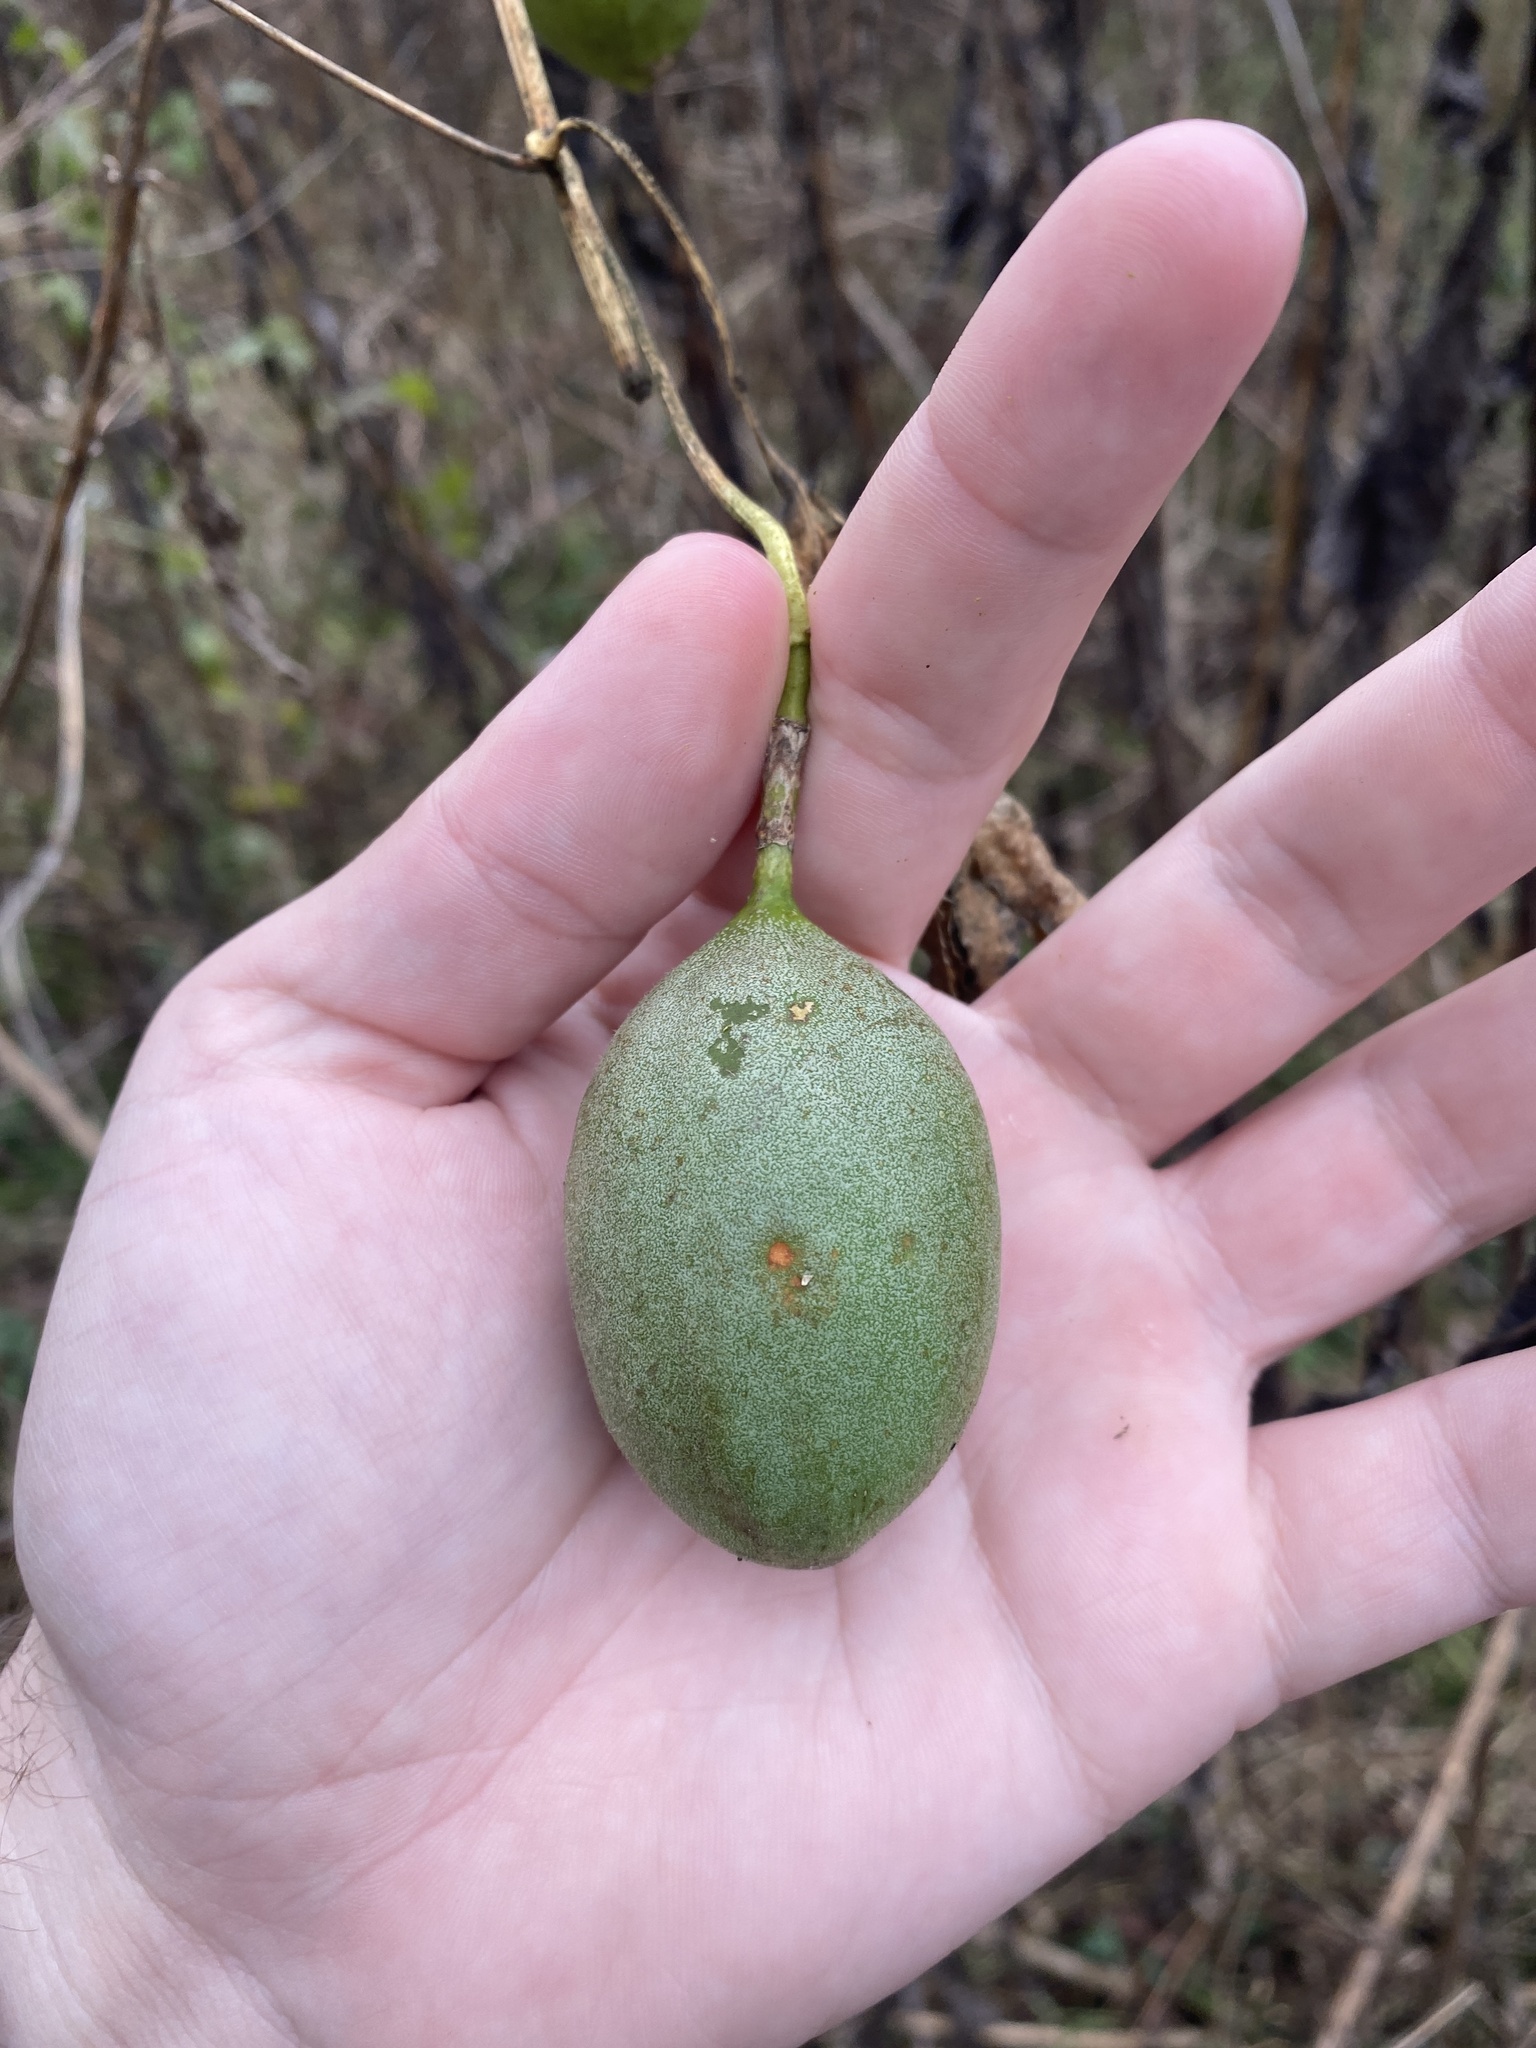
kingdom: Plantae
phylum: Tracheophyta
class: Magnoliopsida
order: Malpighiales
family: Passifloraceae
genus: Passiflora
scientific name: Passiflora incarnata
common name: Apricot-vine
